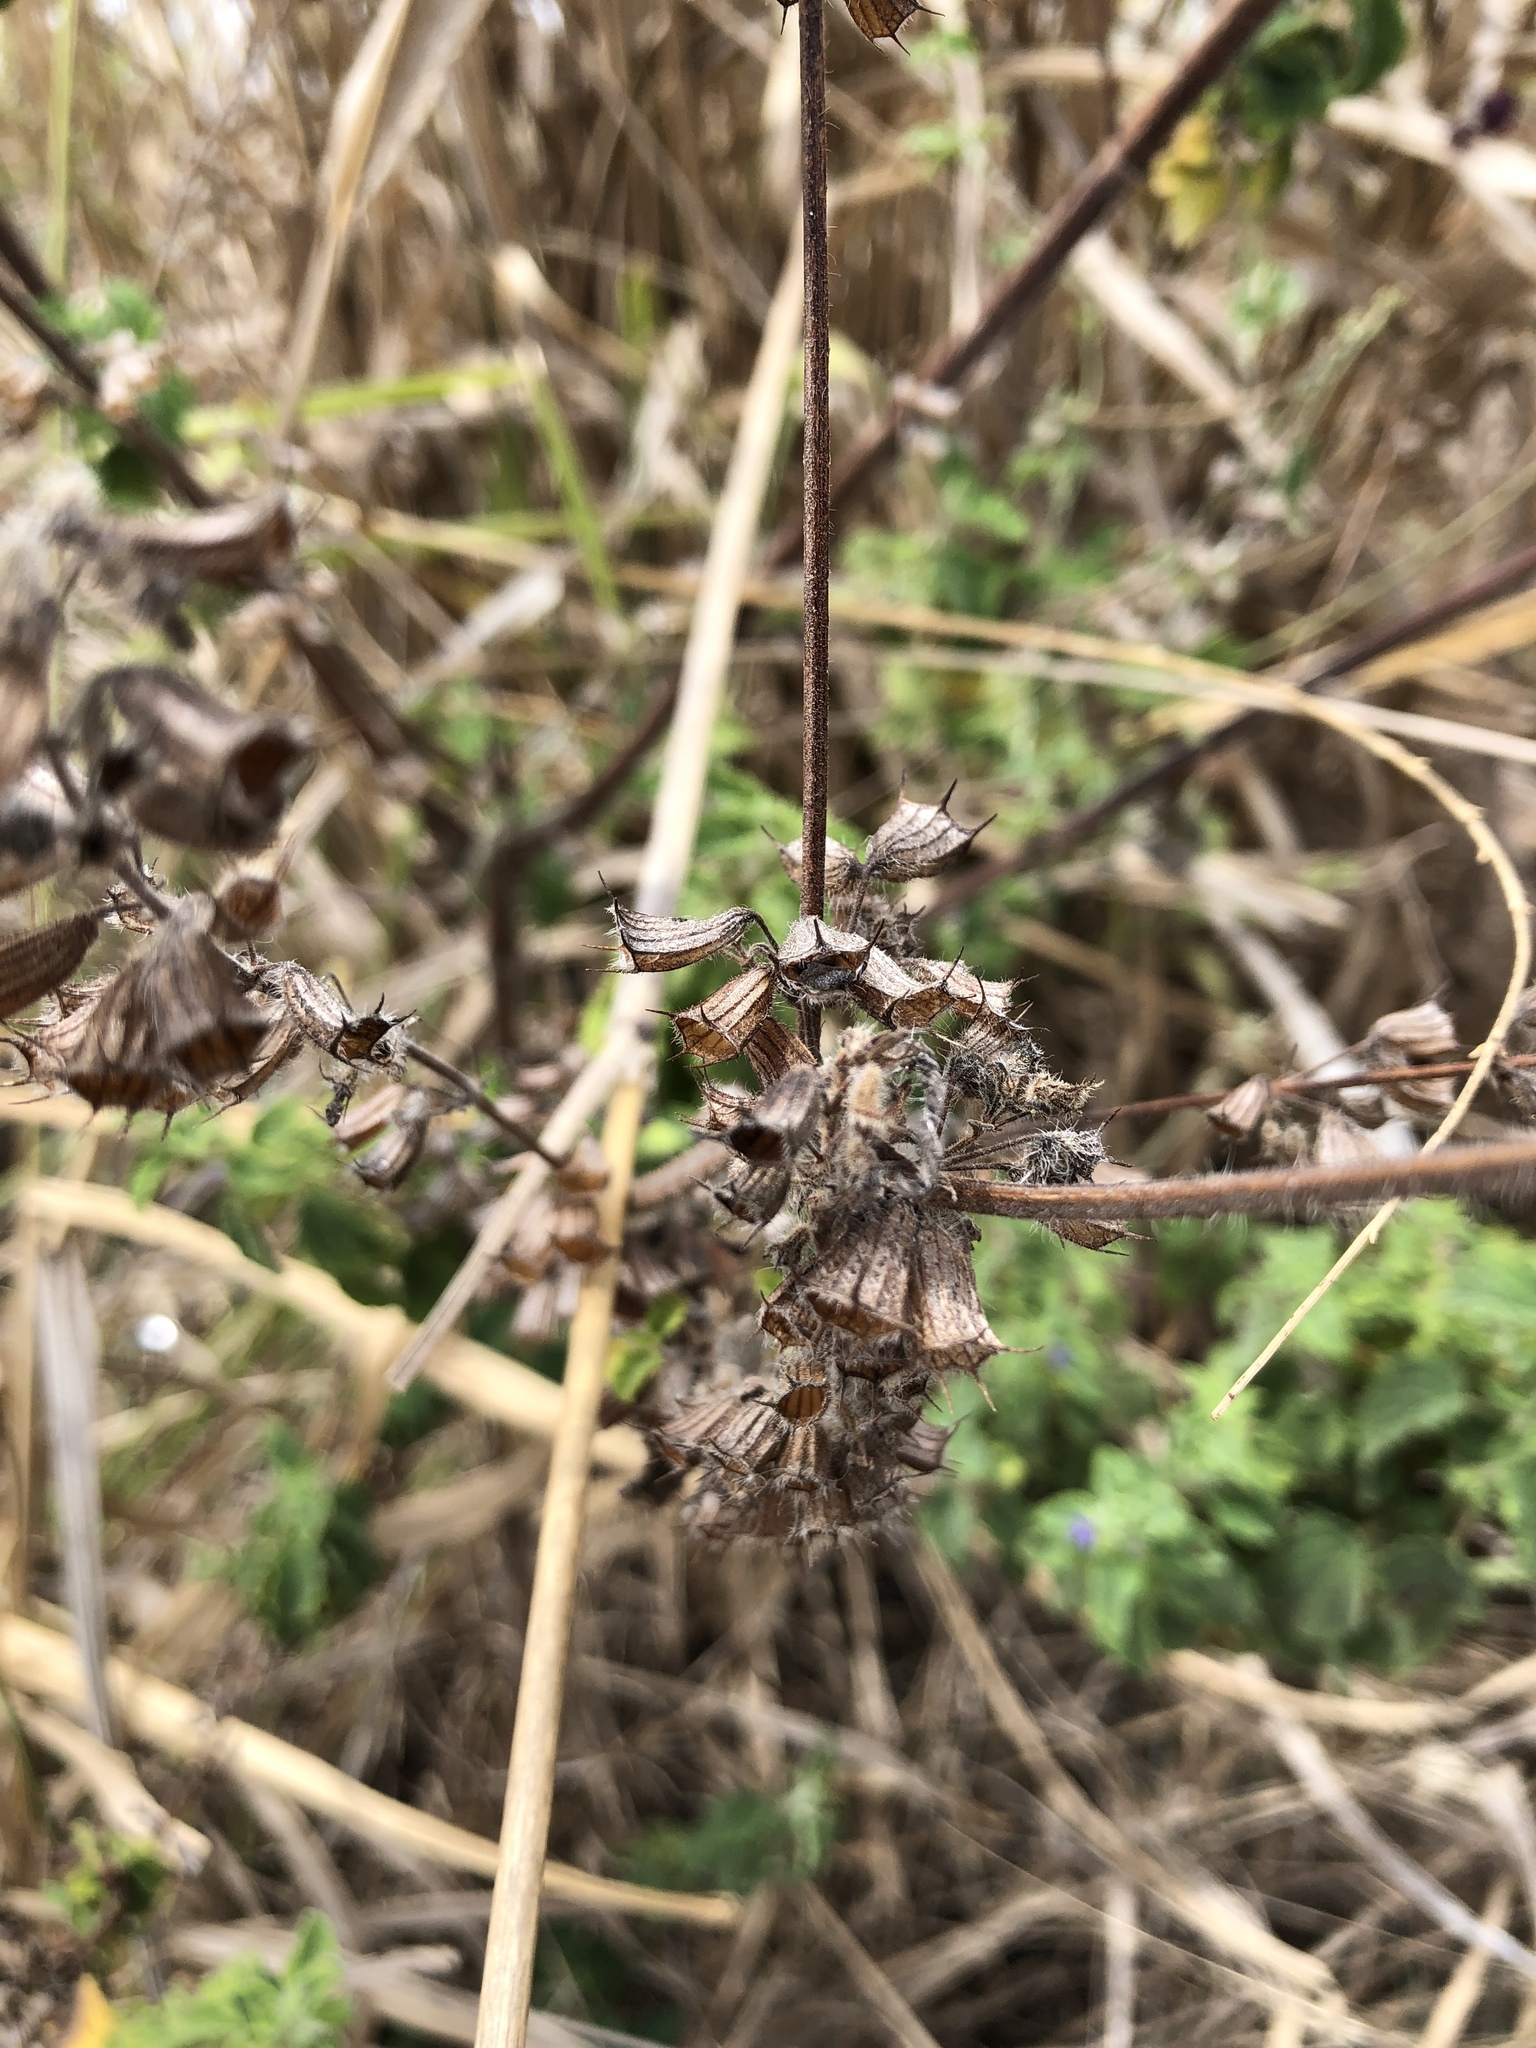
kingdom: Plantae
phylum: Tracheophyta
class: Magnoliopsida
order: Lamiales
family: Lamiaceae
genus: Mesosphaerum
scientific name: Mesosphaerum suaveolens
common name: Pignut
